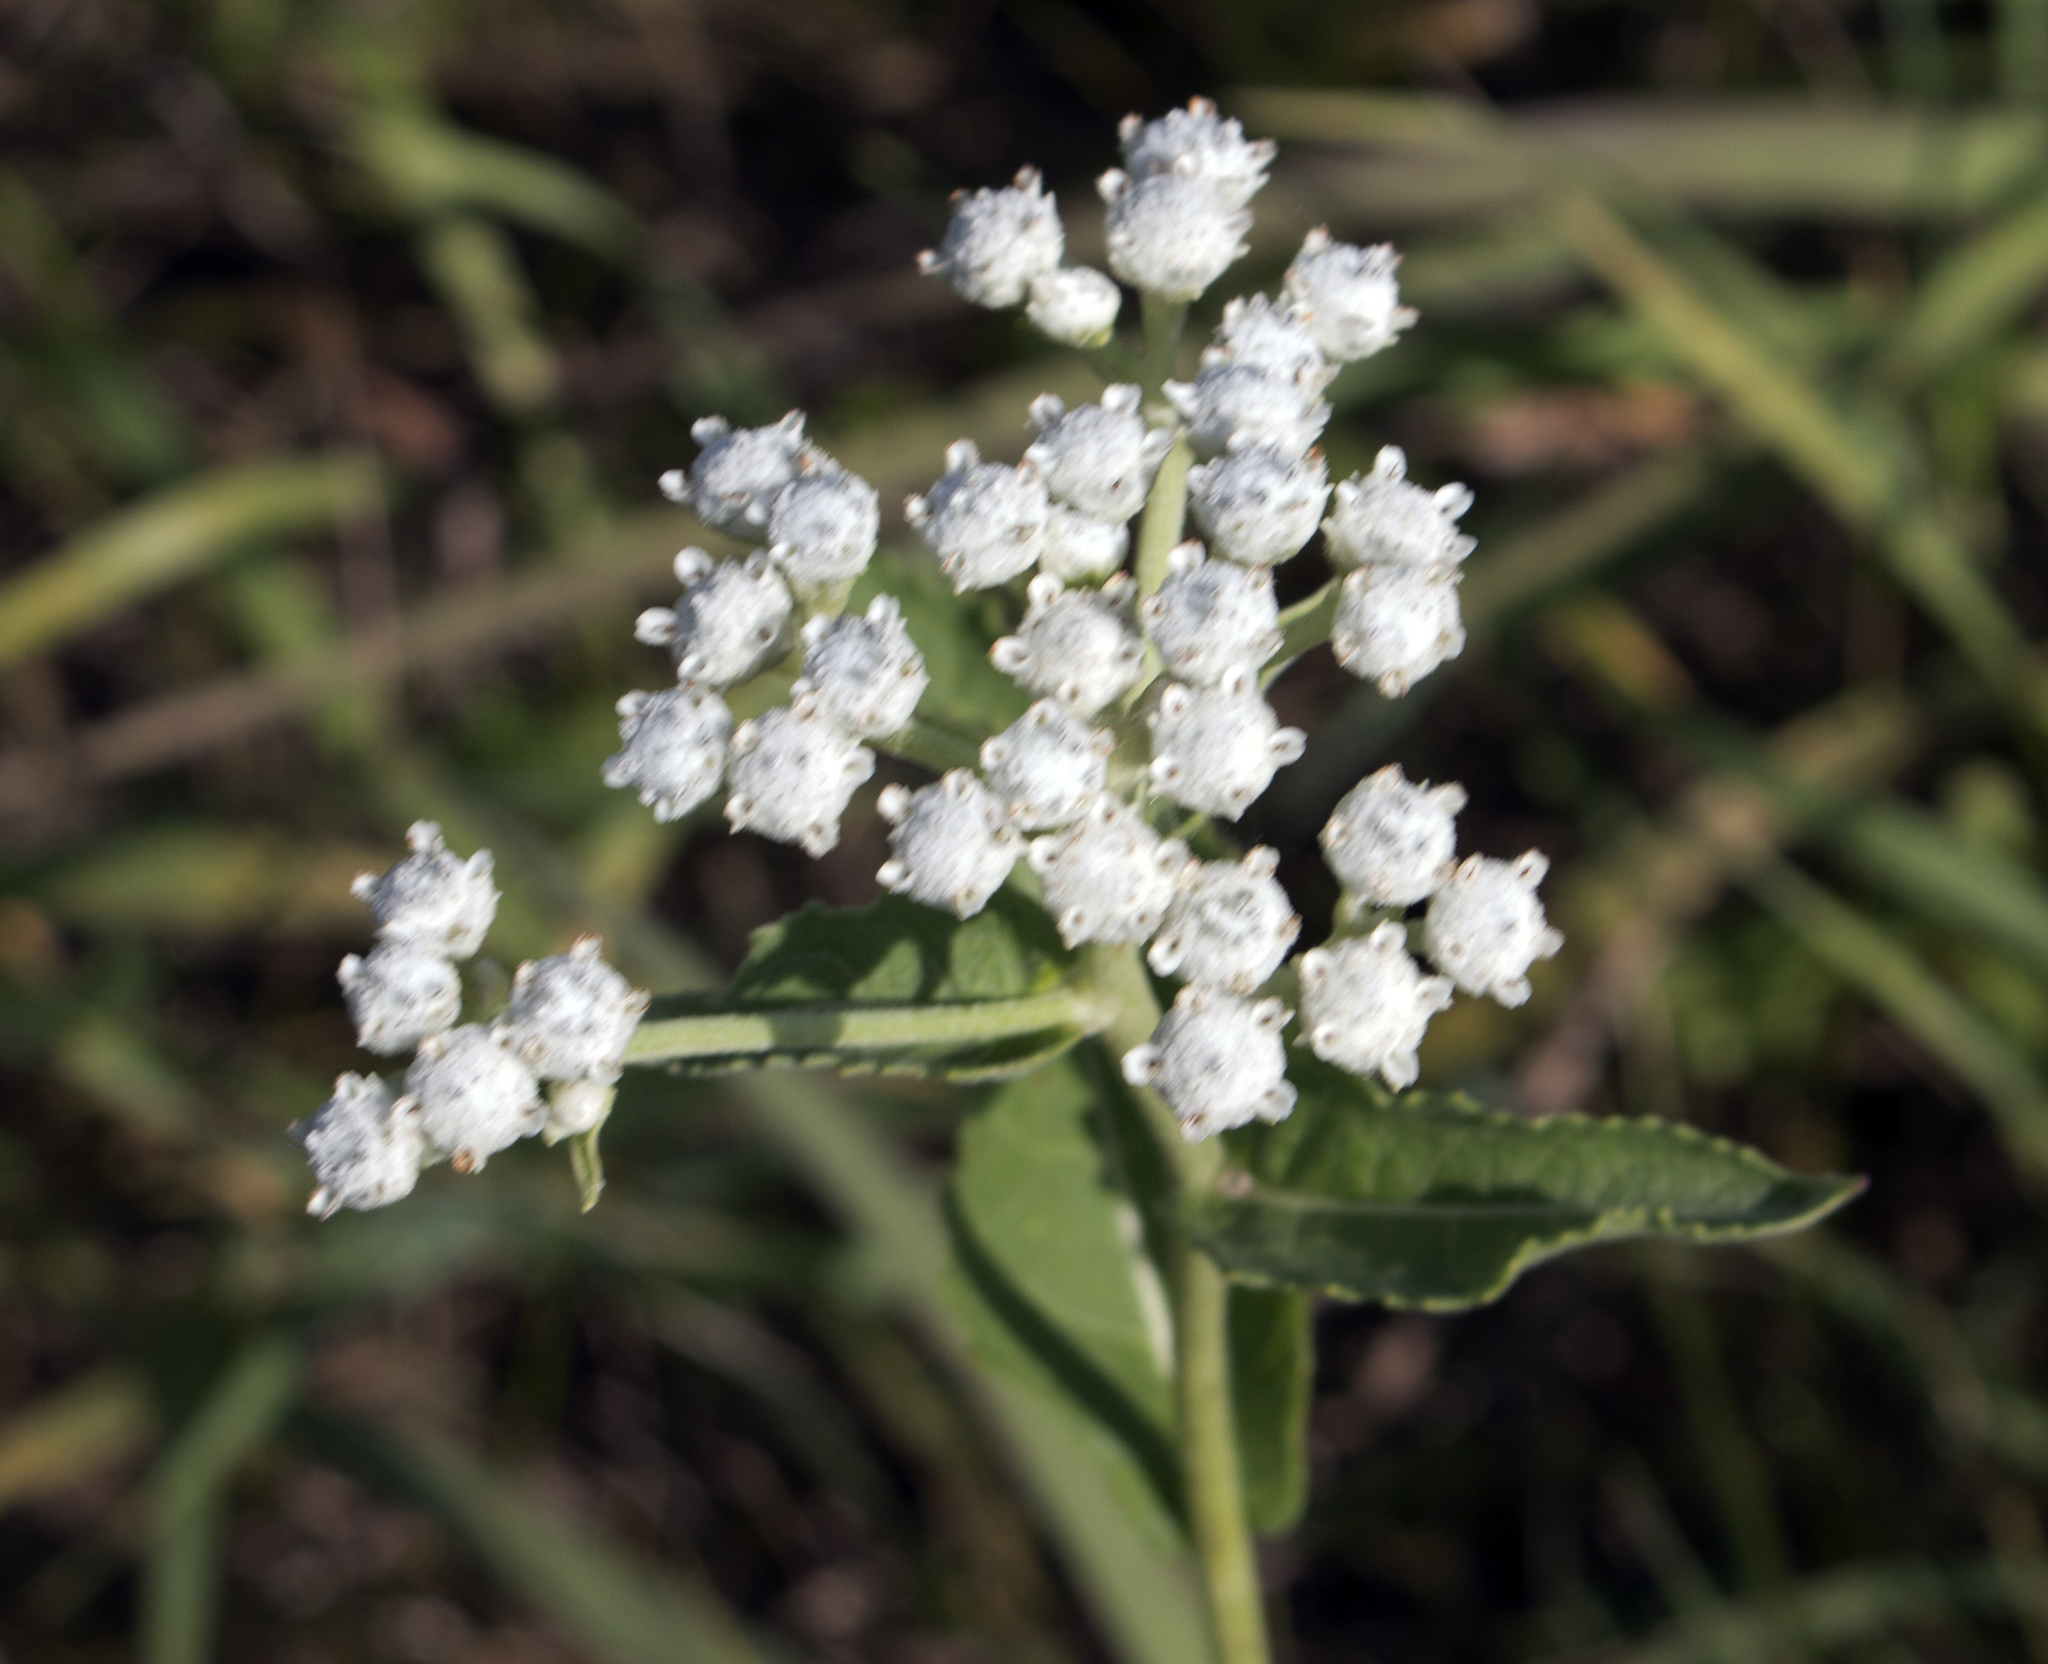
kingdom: Plantae
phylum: Tracheophyta
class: Magnoliopsida
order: Asterales
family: Asteraceae
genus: Parthenium
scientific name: Parthenium integrifolium
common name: American feverfew
